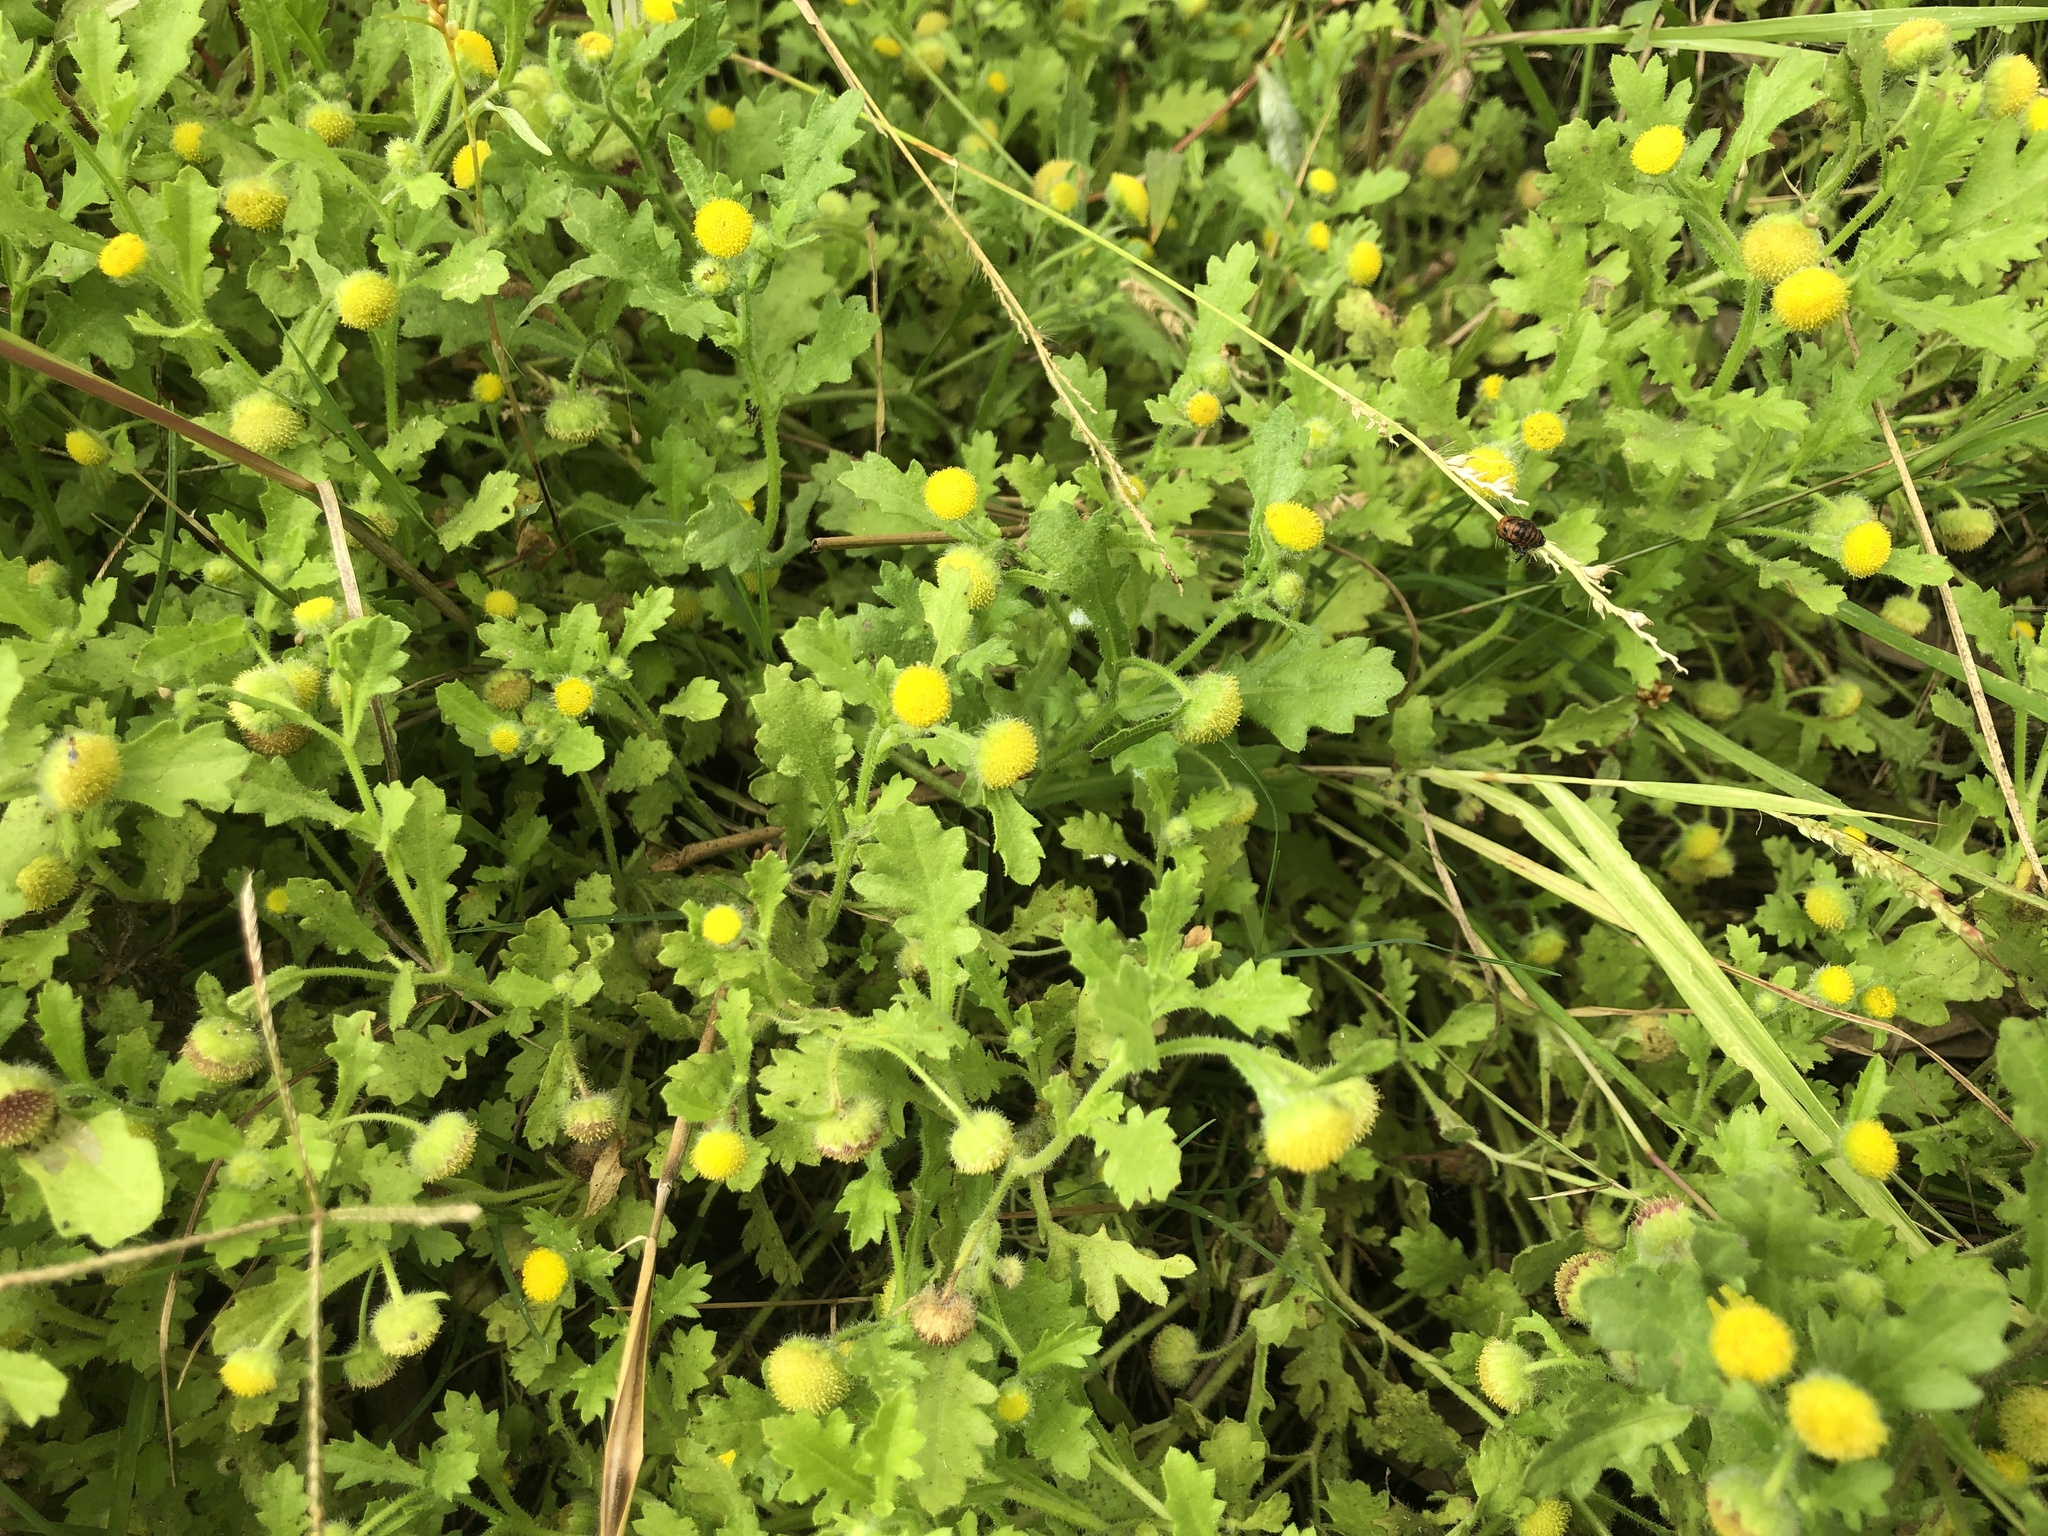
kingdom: Plantae
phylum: Tracheophyta
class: Magnoliopsida
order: Asterales
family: Asteraceae
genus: Grangea
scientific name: Grangea maderaspatana
